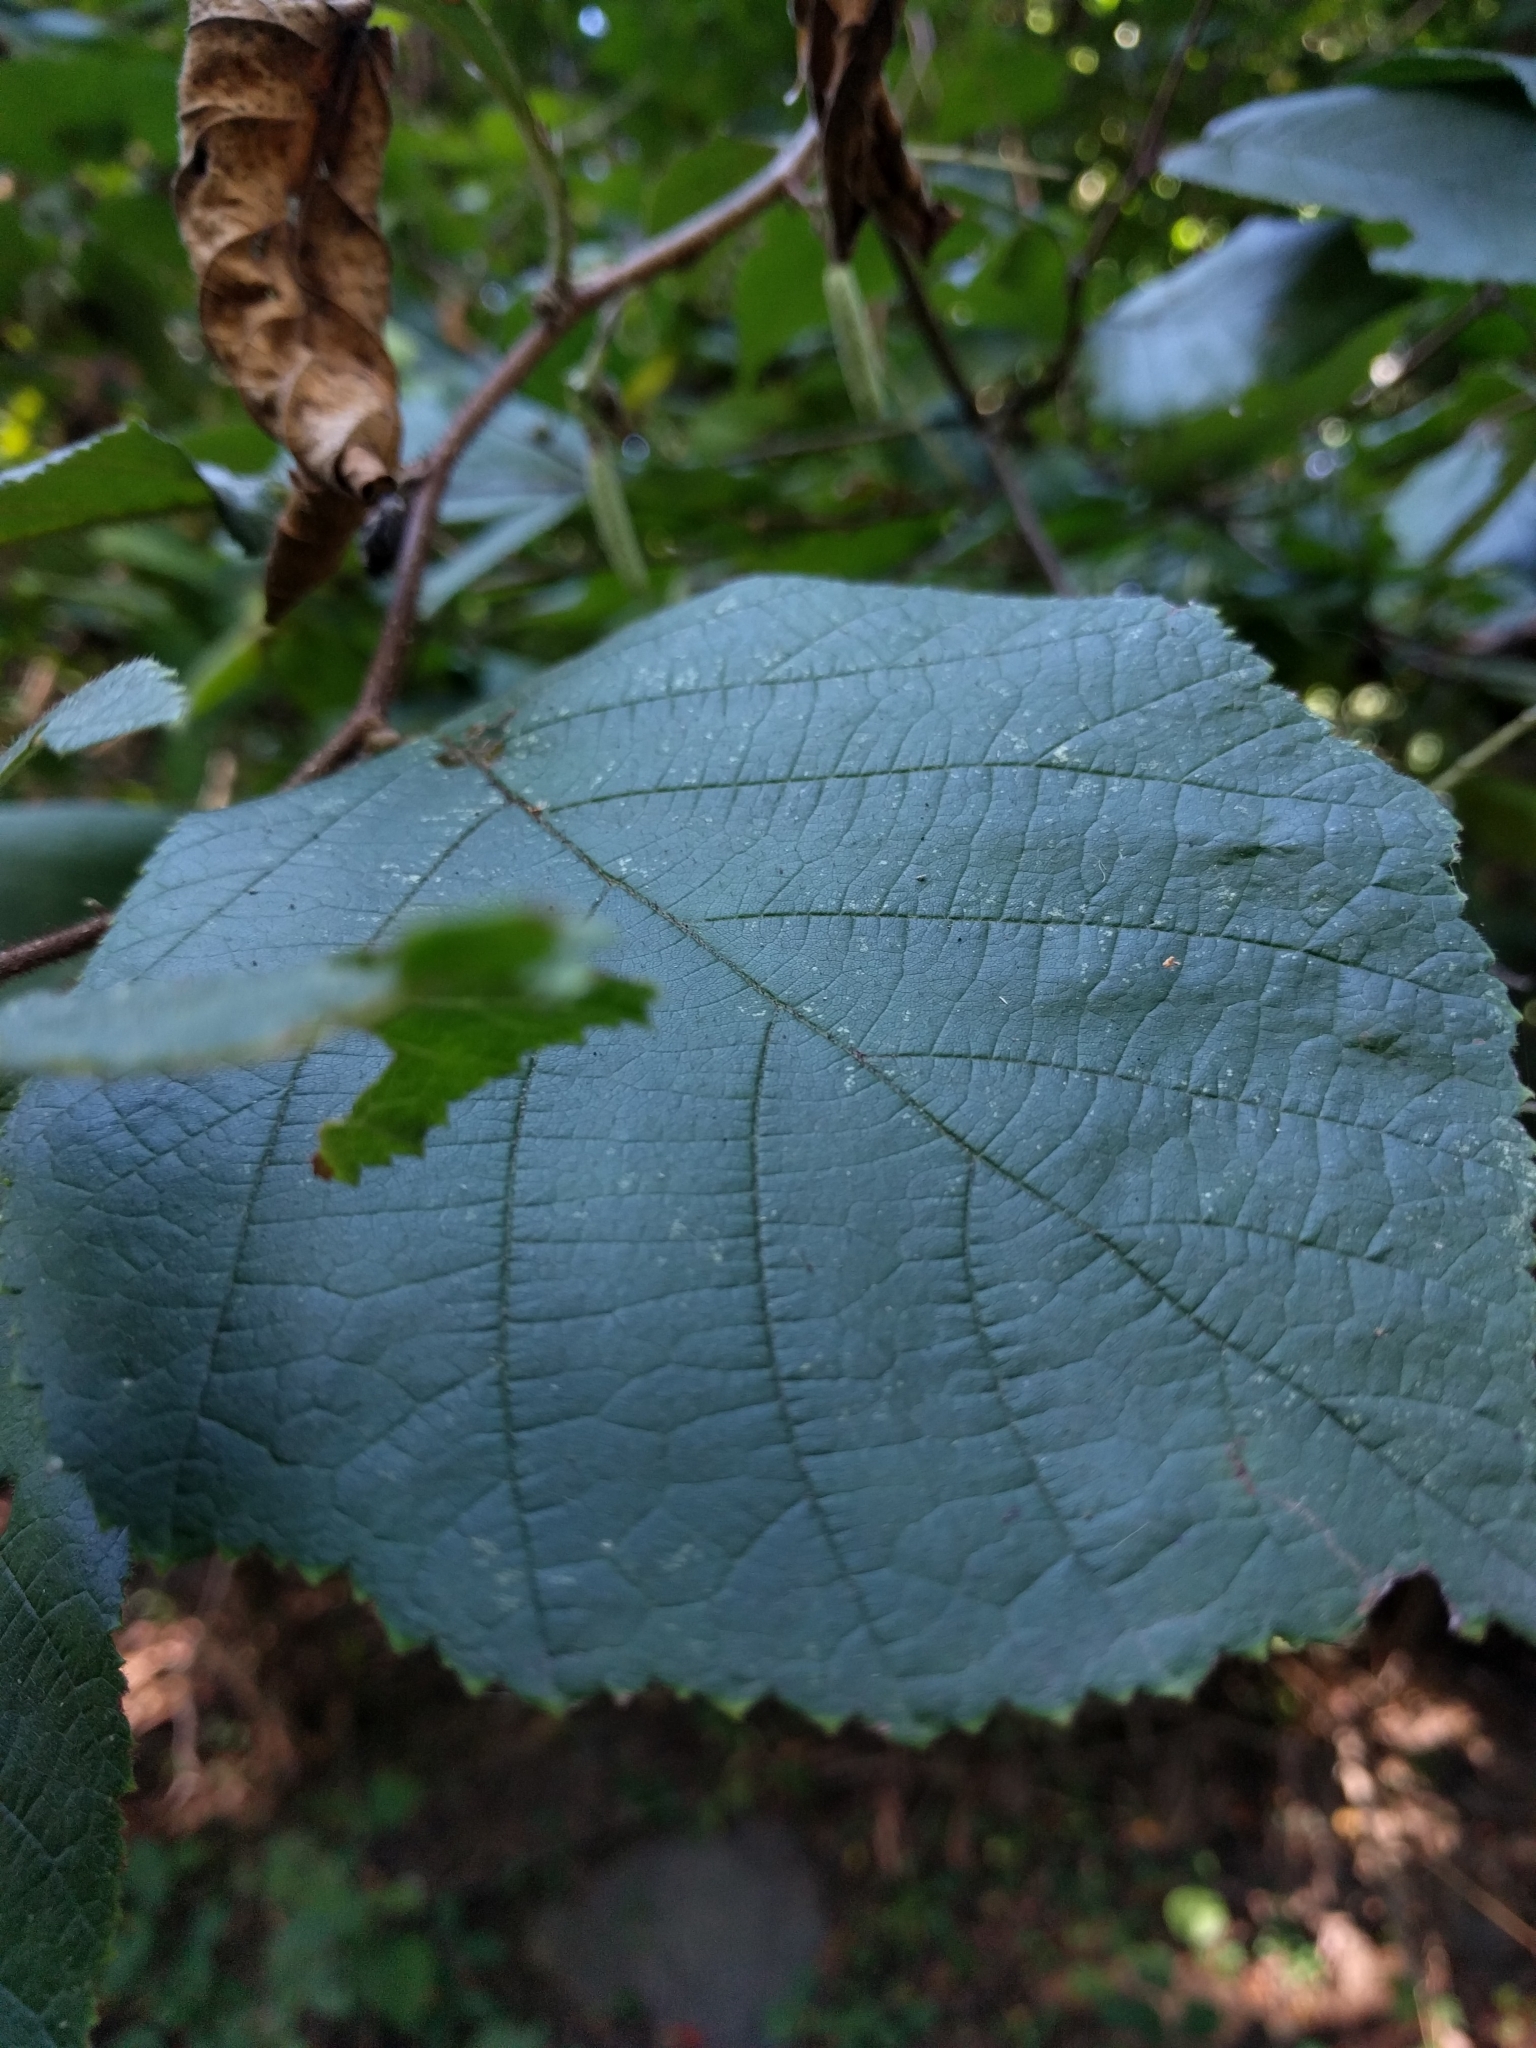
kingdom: Plantae
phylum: Tracheophyta
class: Magnoliopsida
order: Fagales
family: Betulaceae
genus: Corylus
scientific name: Corylus americana
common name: American hazel
